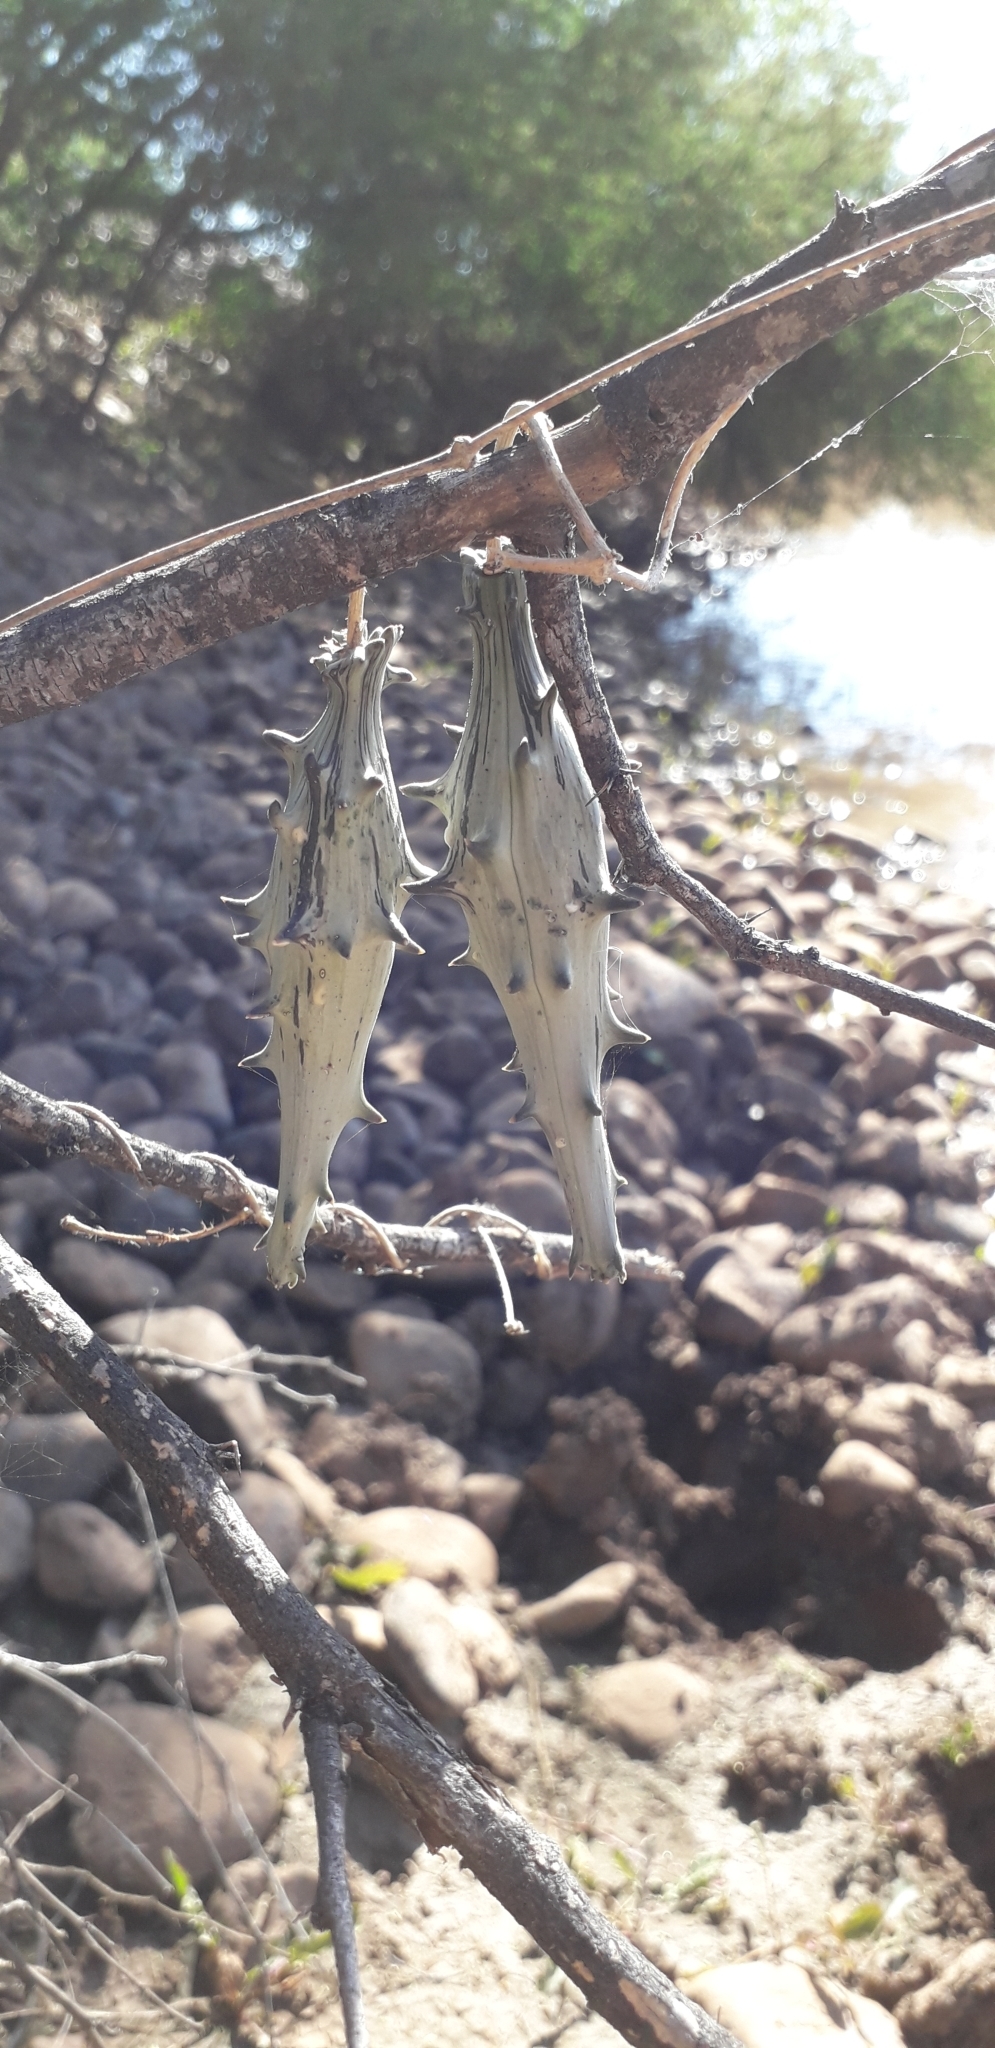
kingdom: Plantae
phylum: Tracheophyta
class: Magnoliopsida
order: Gentianales
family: Apocynaceae
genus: Dictyanthus
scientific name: Dictyanthus altatensis
